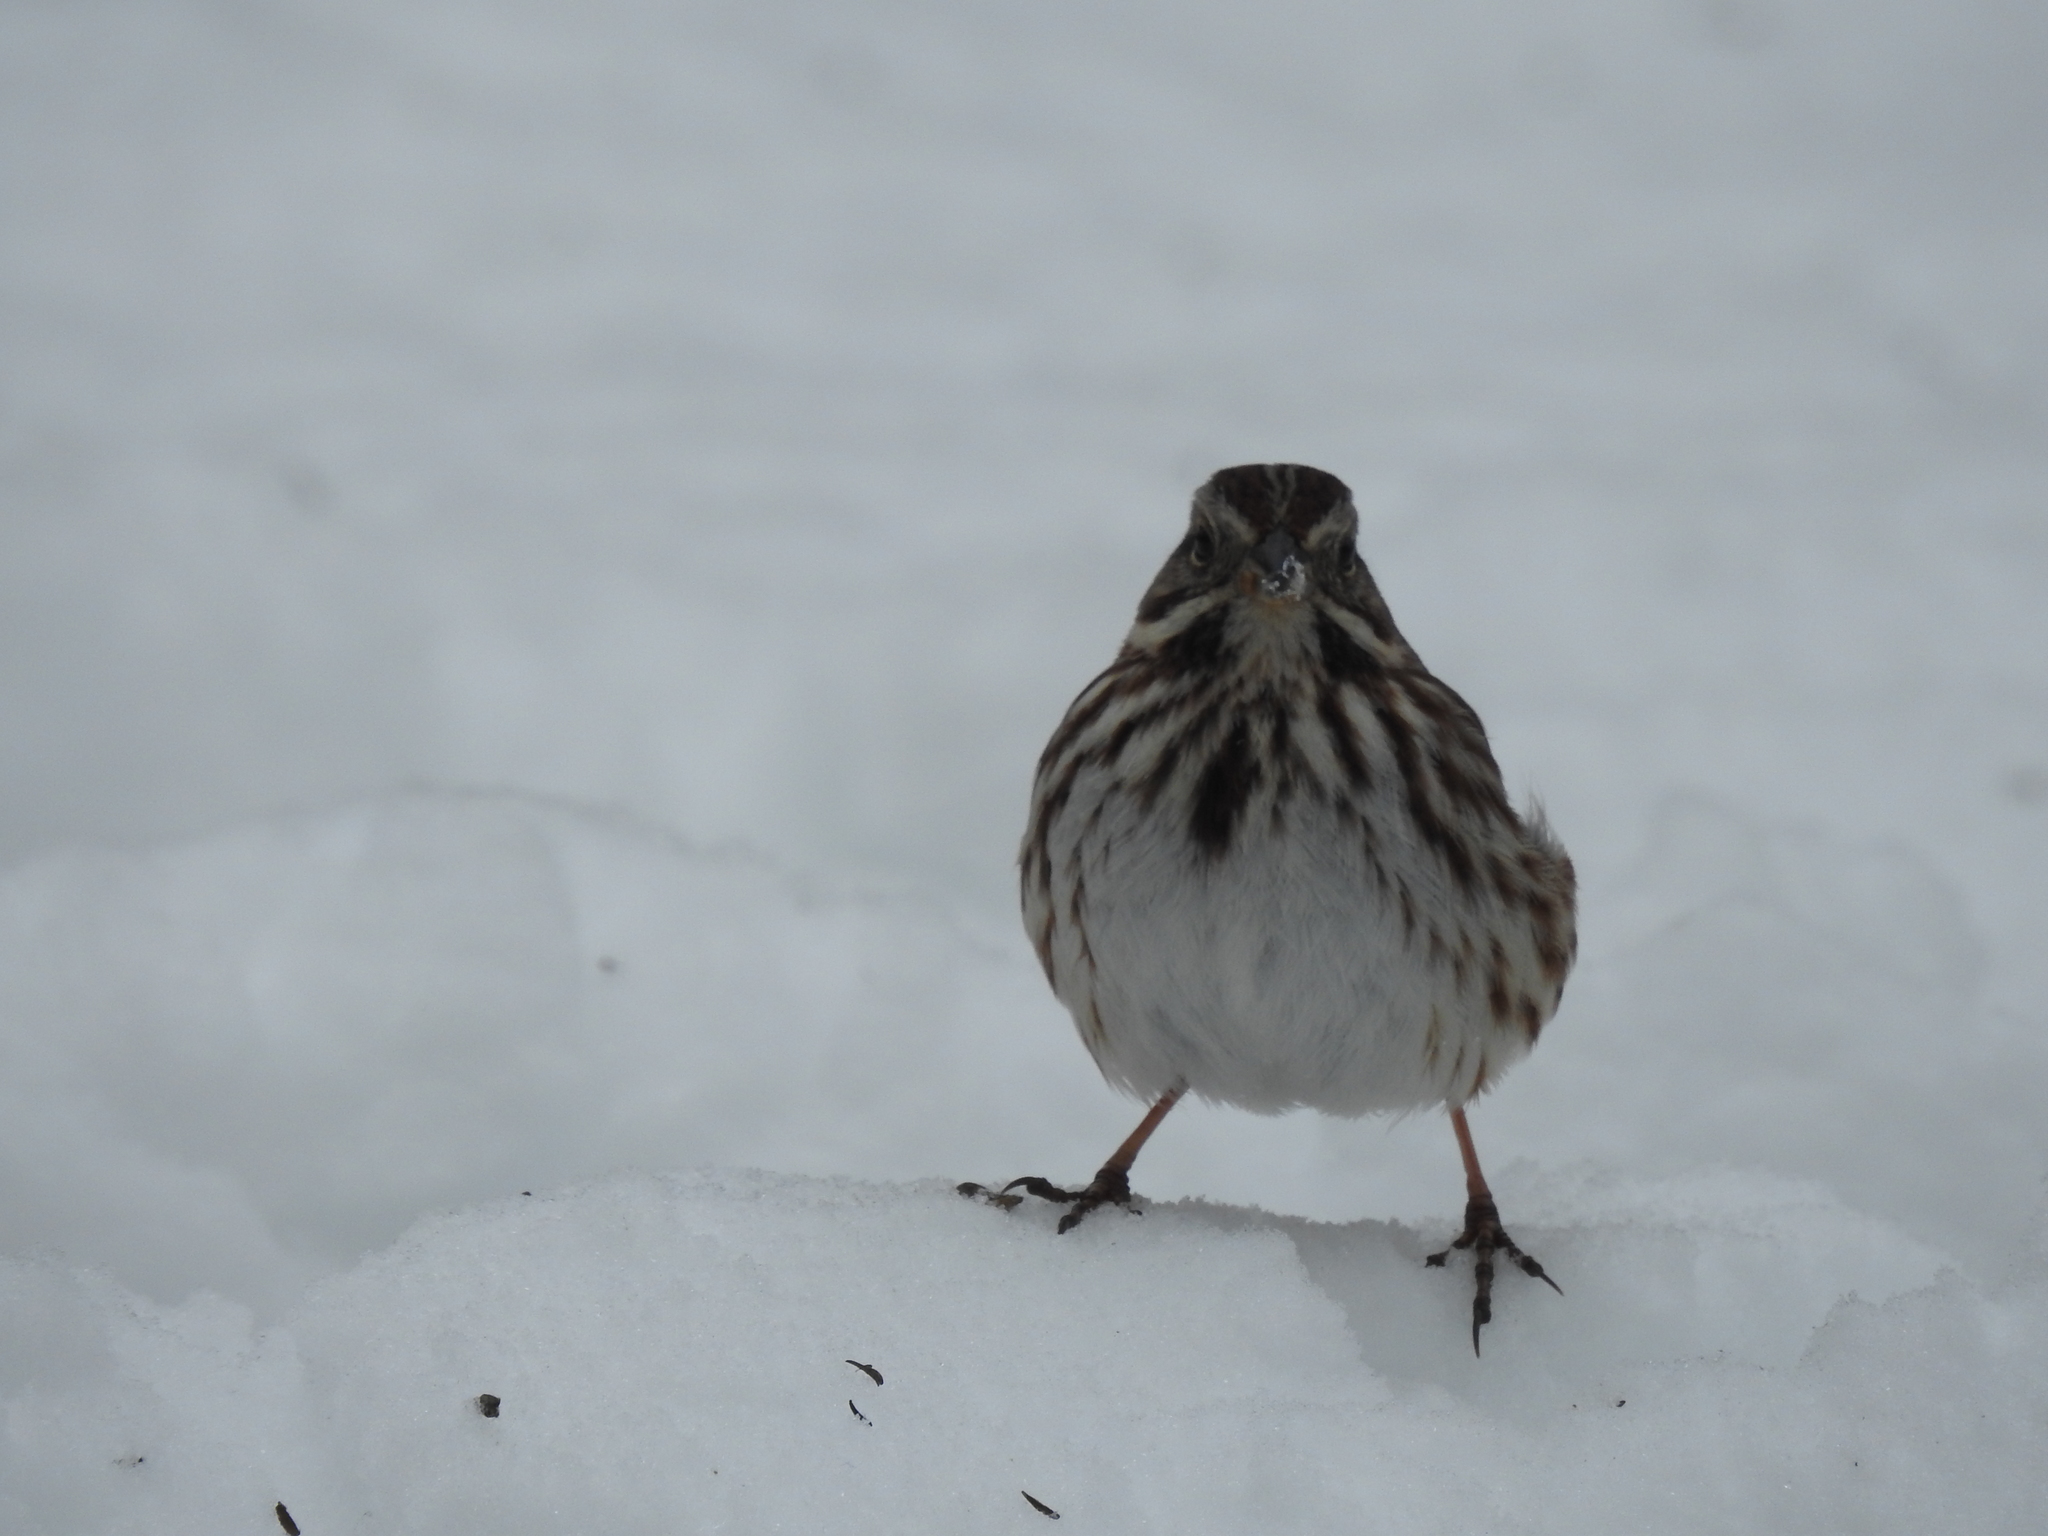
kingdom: Animalia
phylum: Chordata
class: Aves
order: Passeriformes
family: Passerellidae
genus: Melospiza
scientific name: Melospiza melodia
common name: Song sparrow
